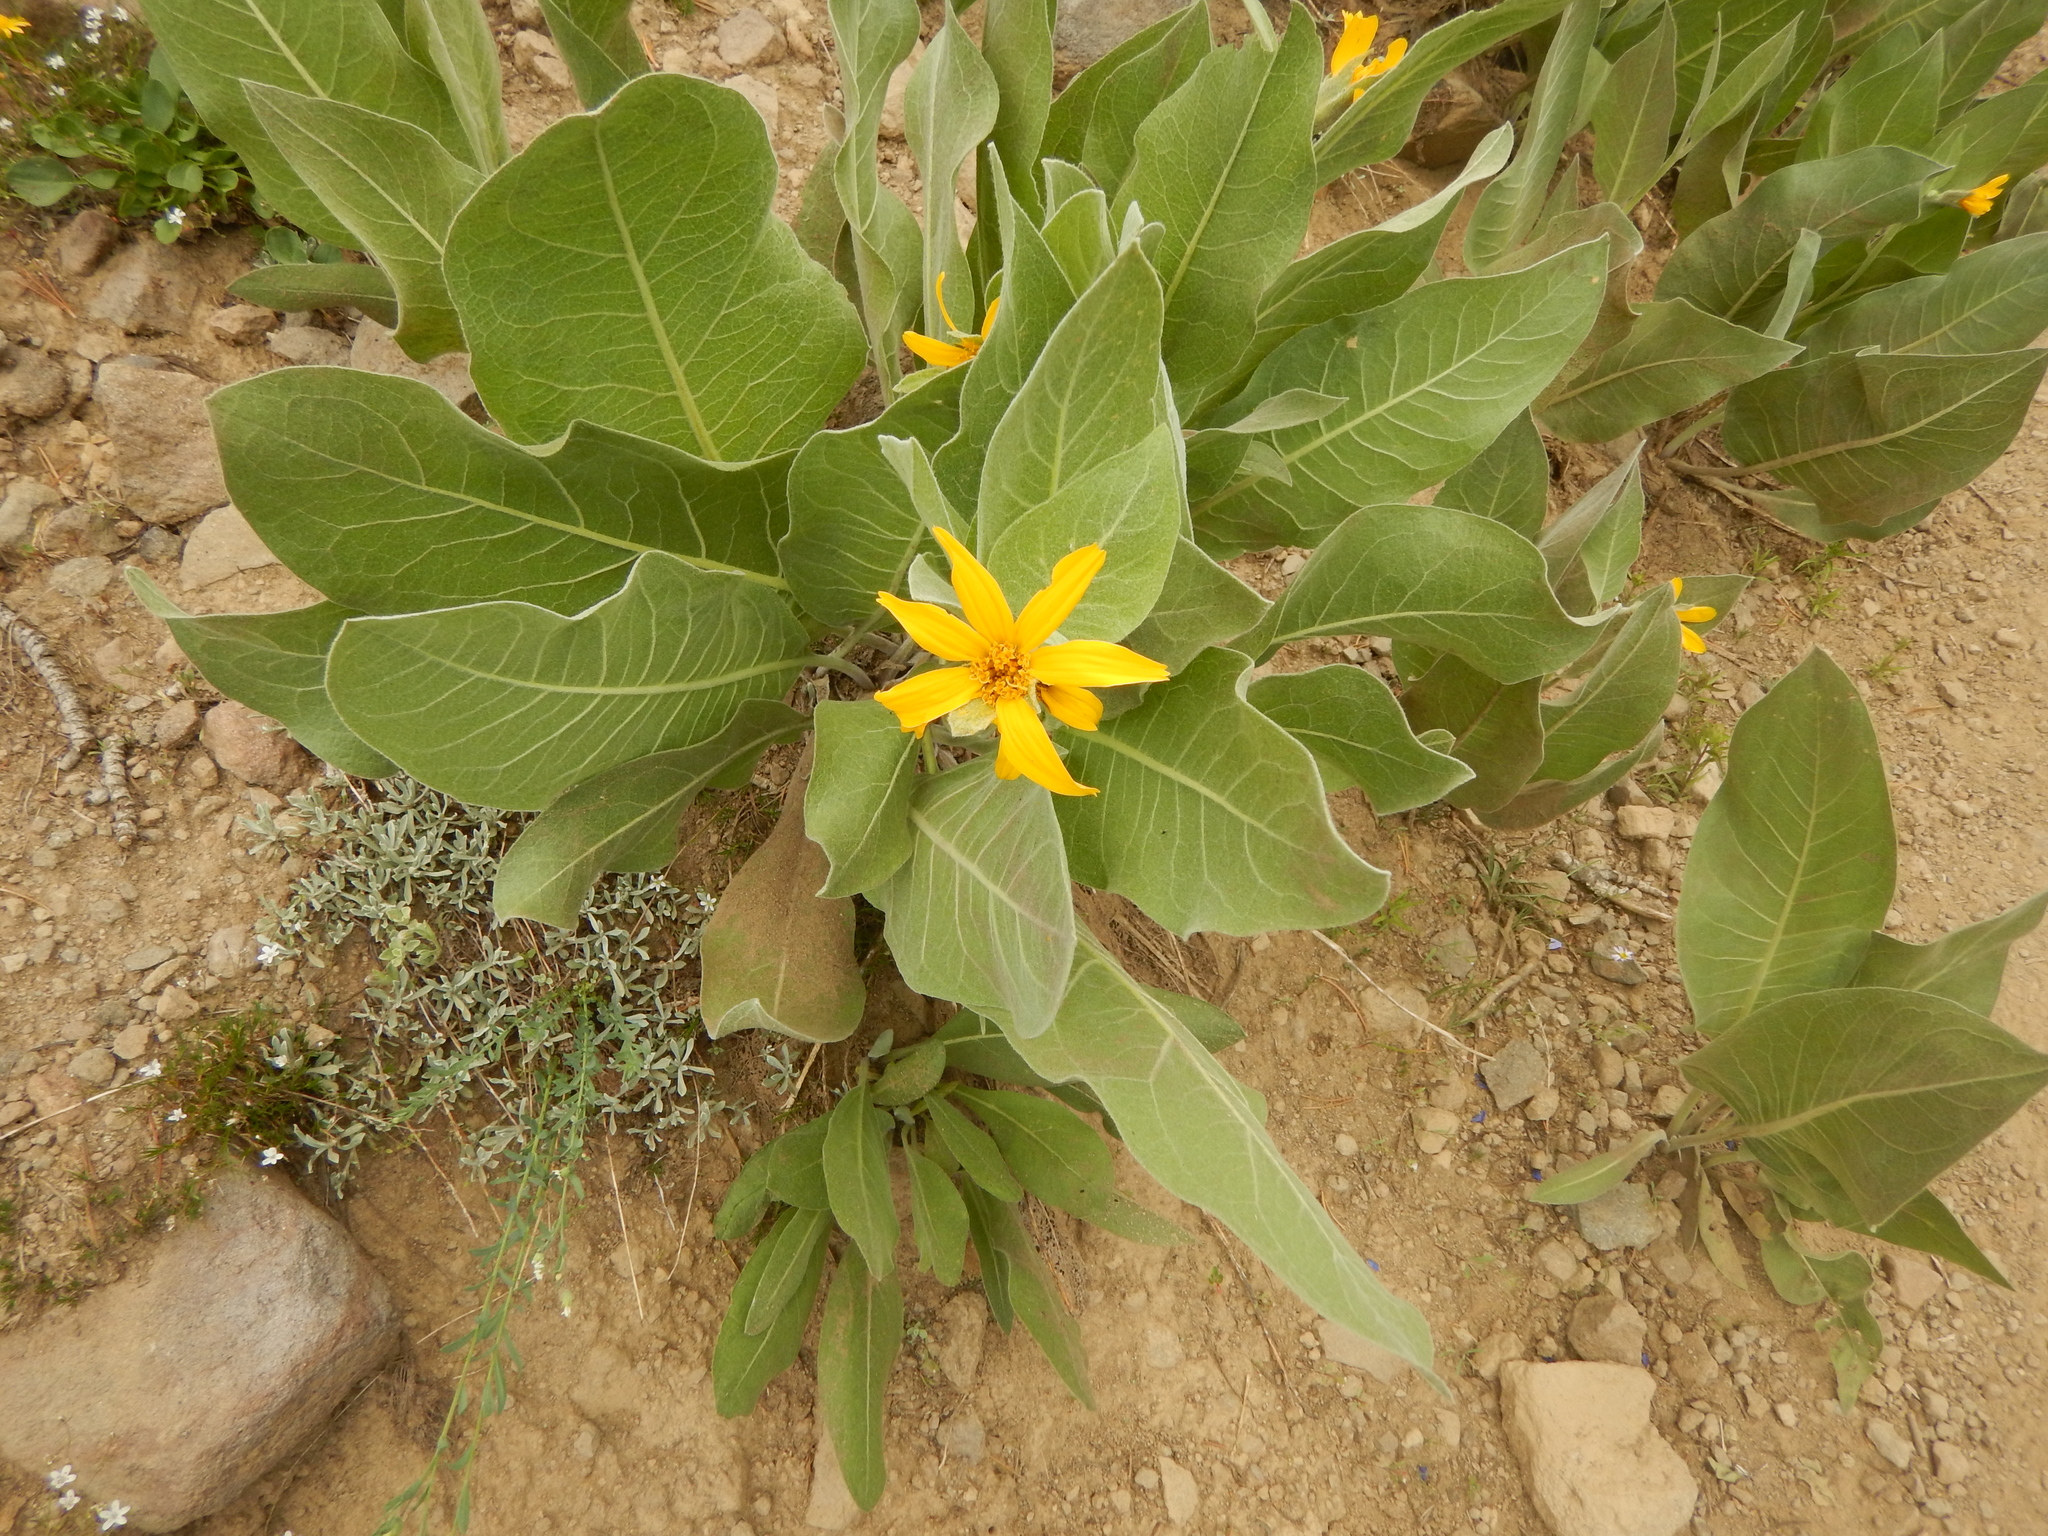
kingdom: Plantae
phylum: Tracheophyta
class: Magnoliopsida
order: Asterales
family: Asteraceae
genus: Wyethia
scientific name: Wyethia mollis
